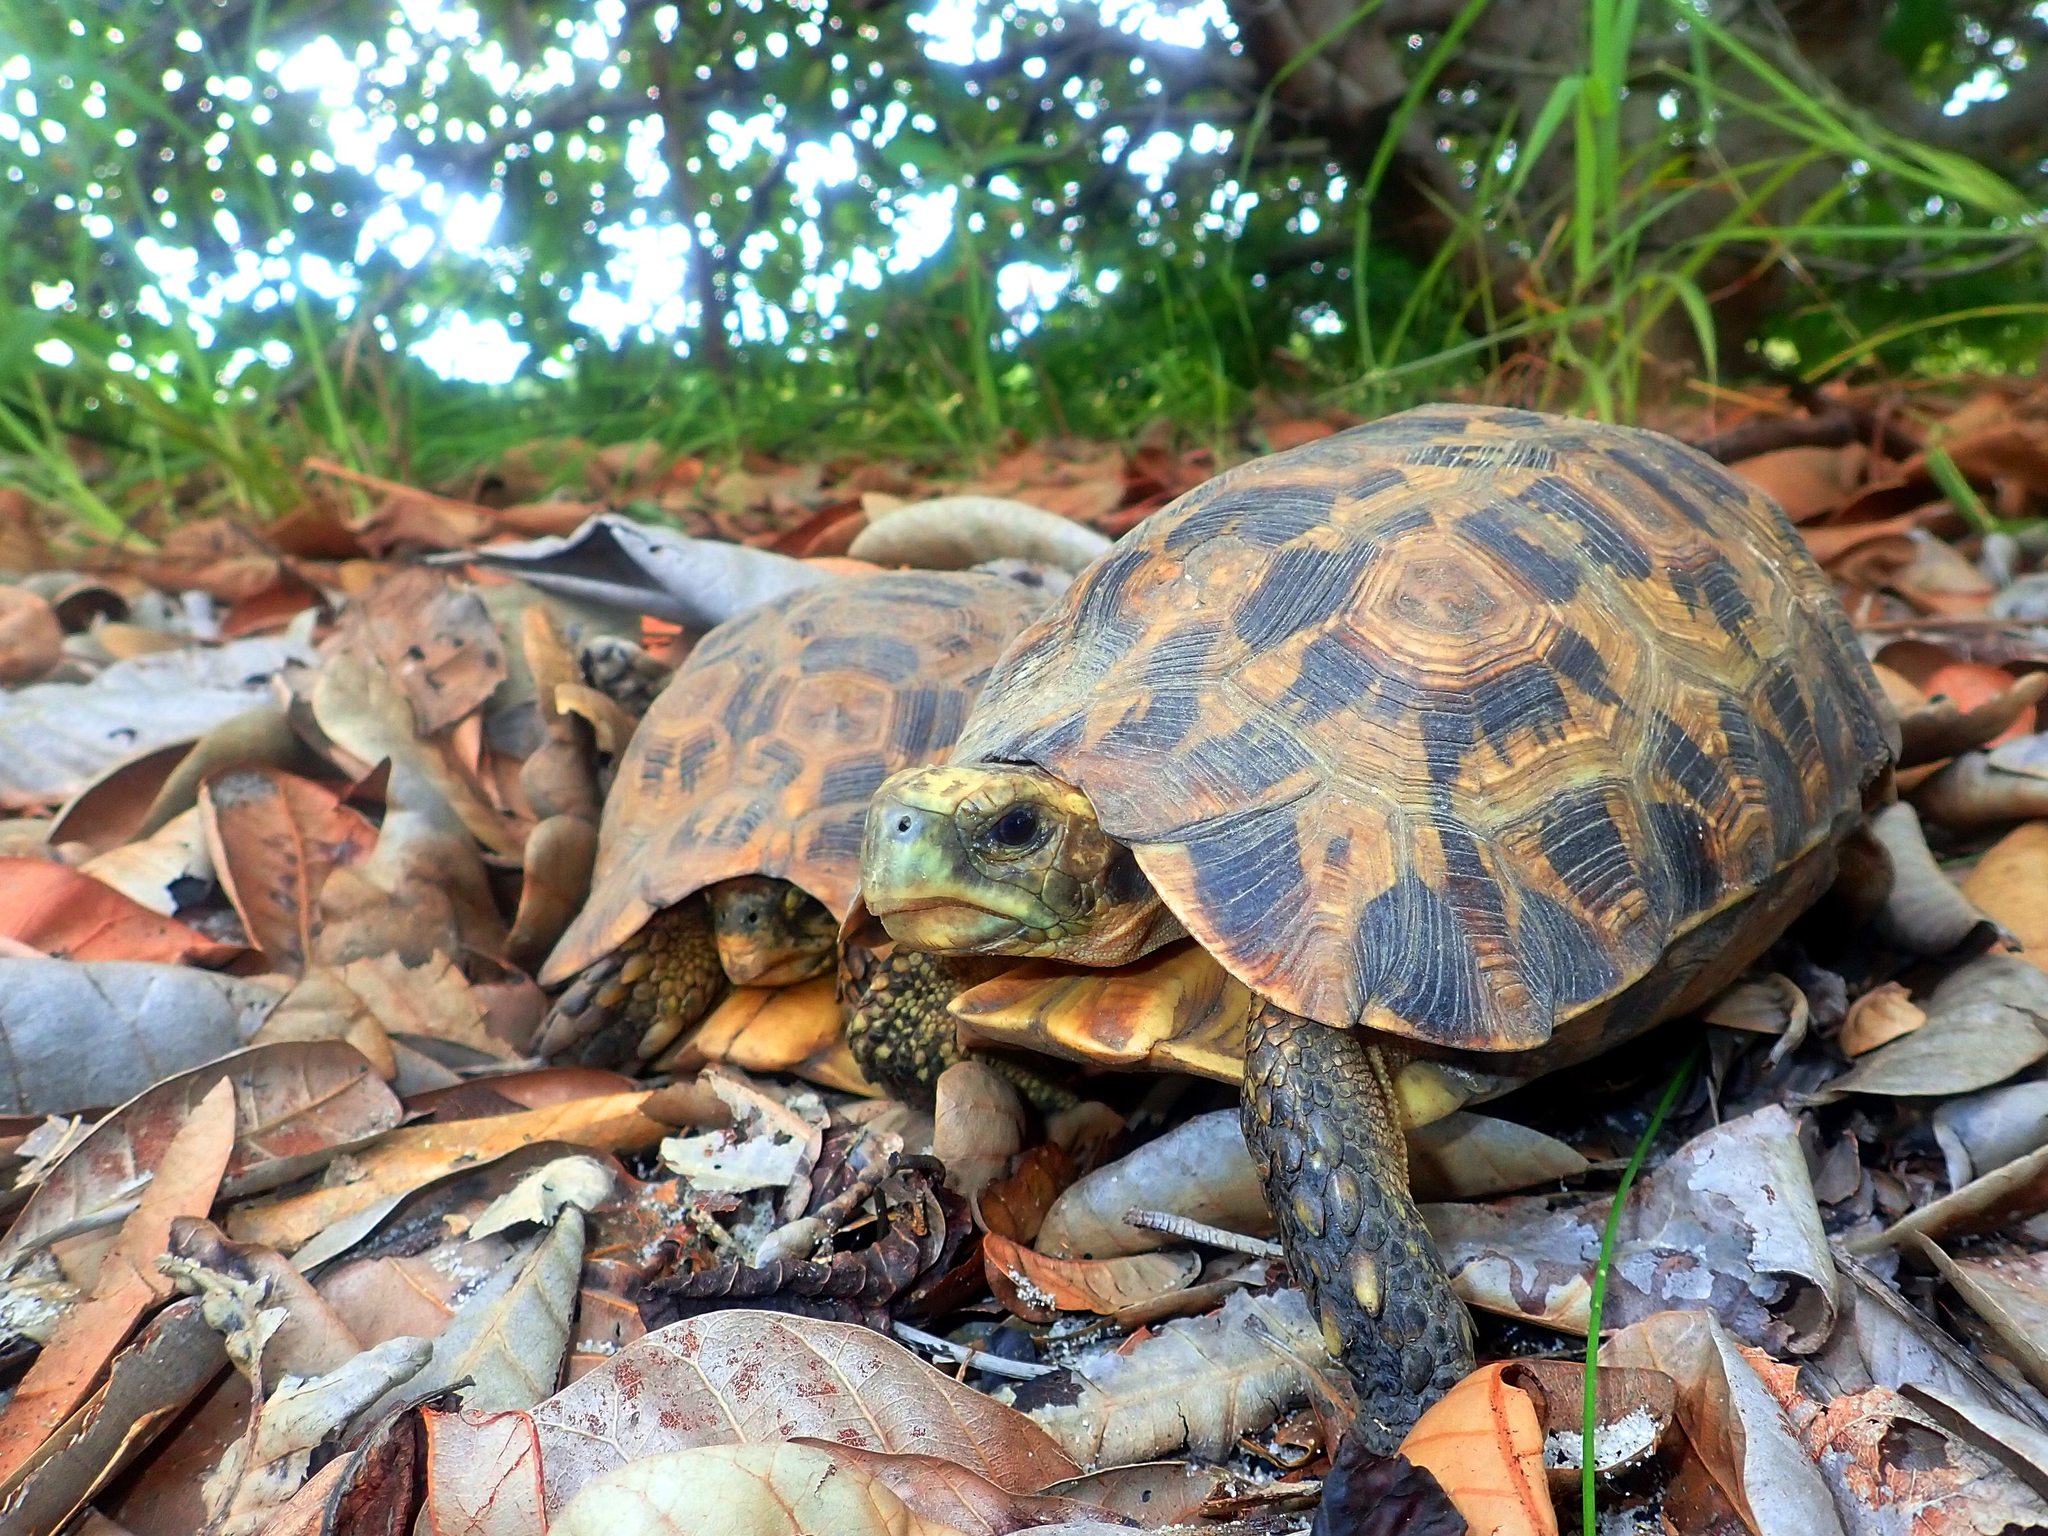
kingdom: Animalia
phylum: Chordata
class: Testudines
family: Testudinidae
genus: Kinixys
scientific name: Kinixys zombensis
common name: Southeastern hinge-back tortoise
